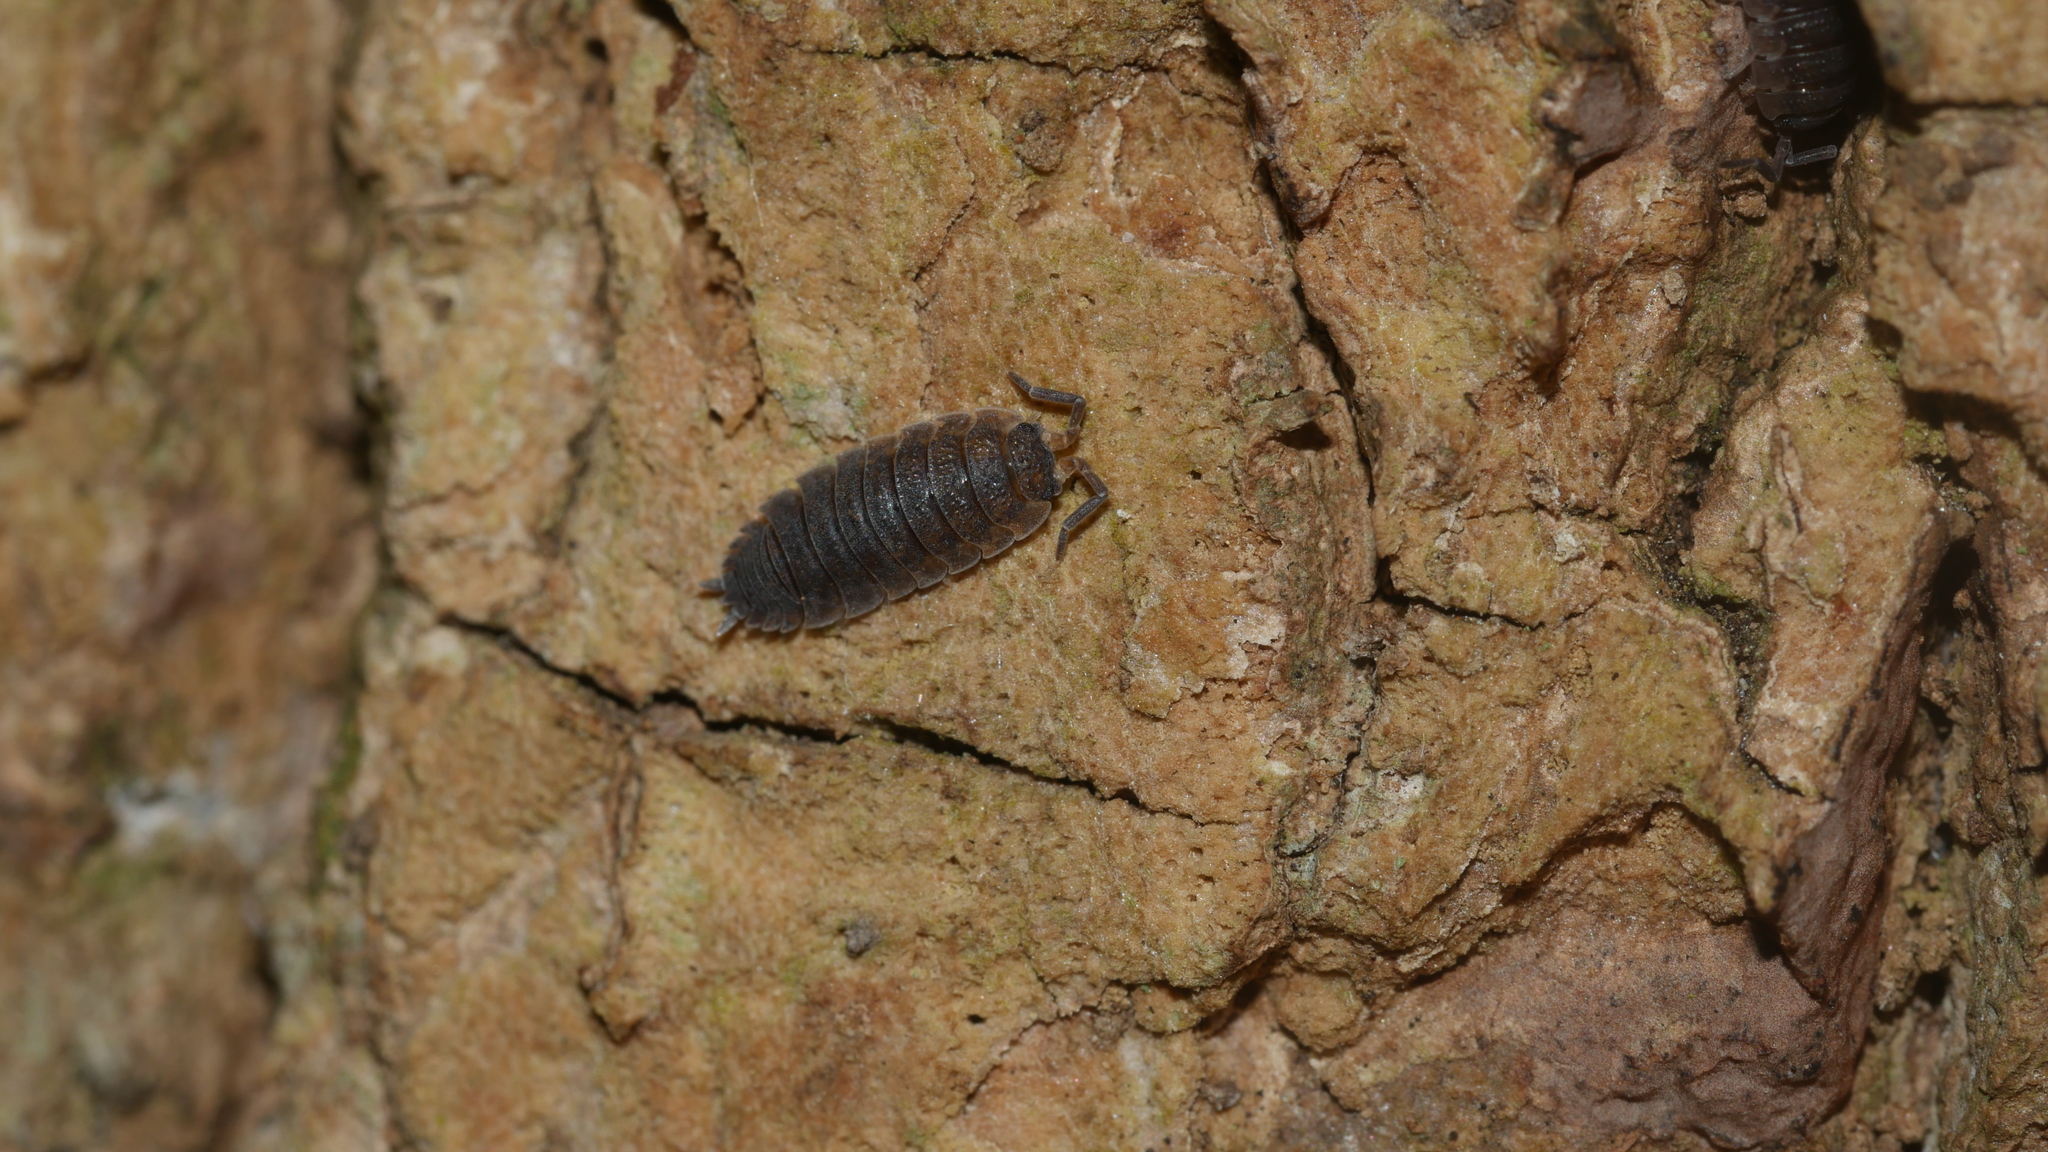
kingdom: Animalia
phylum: Arthropoda
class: Malacostraca
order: Isopoda
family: Porcellionidae
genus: Porcellio
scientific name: Porcellio scaber
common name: Common rough woodlouse
